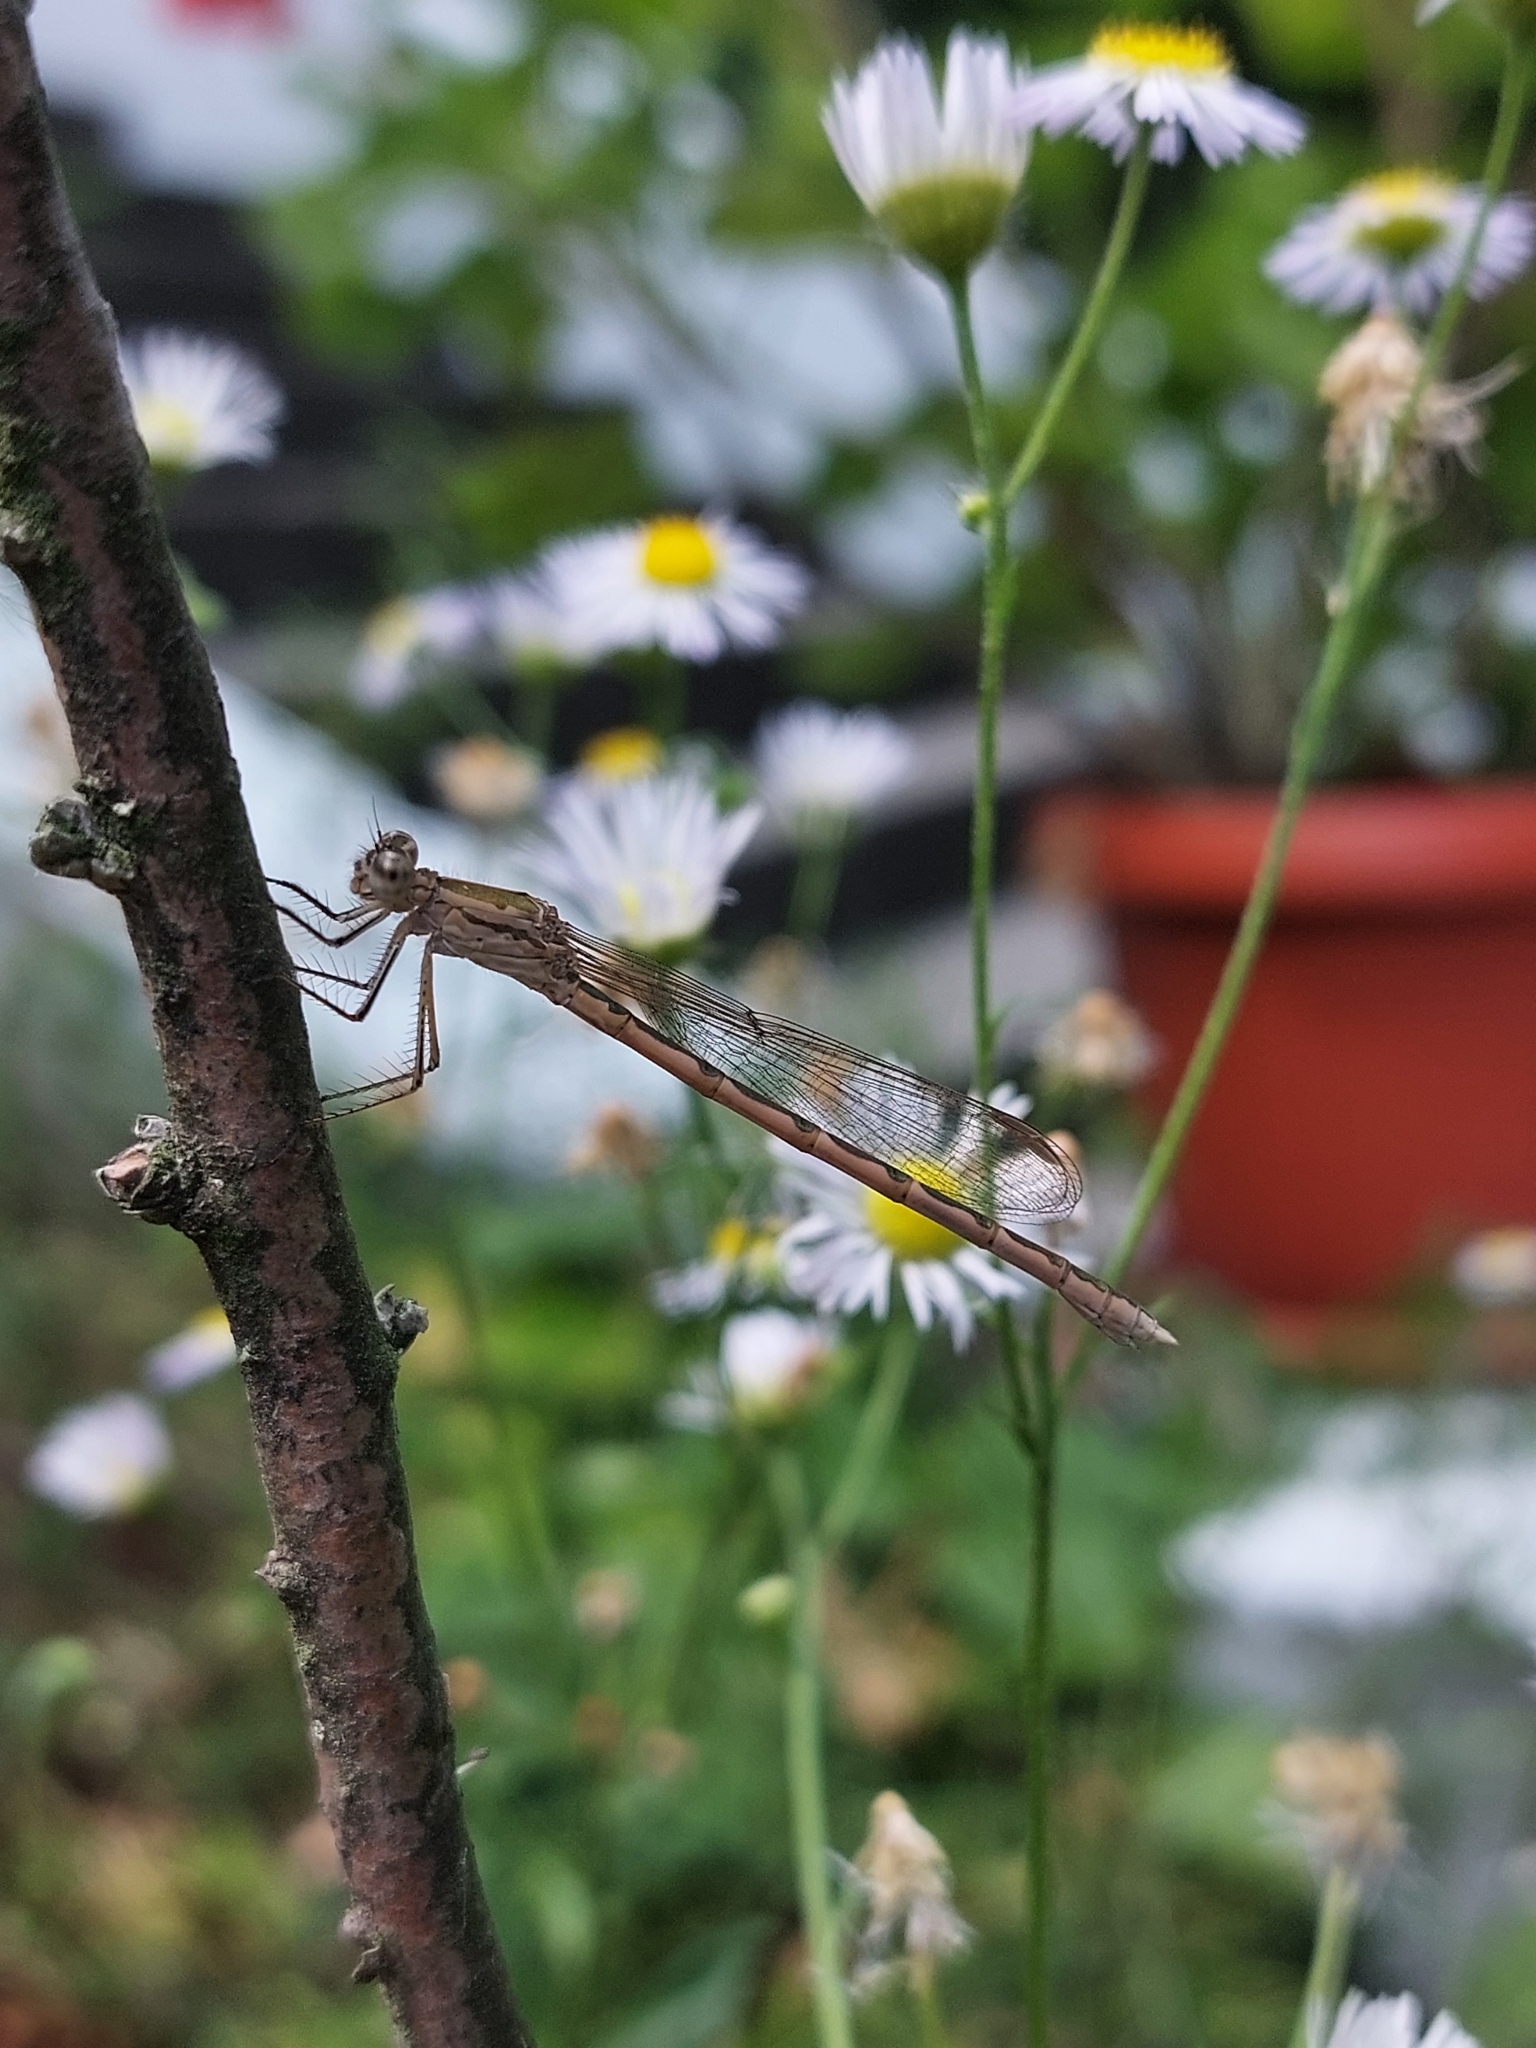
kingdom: Animalia
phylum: Arthropoda
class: Insecta
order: Odonata
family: Lestidae
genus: Sympecma
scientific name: Sympecma paedisca
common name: Siberian winter damsel
